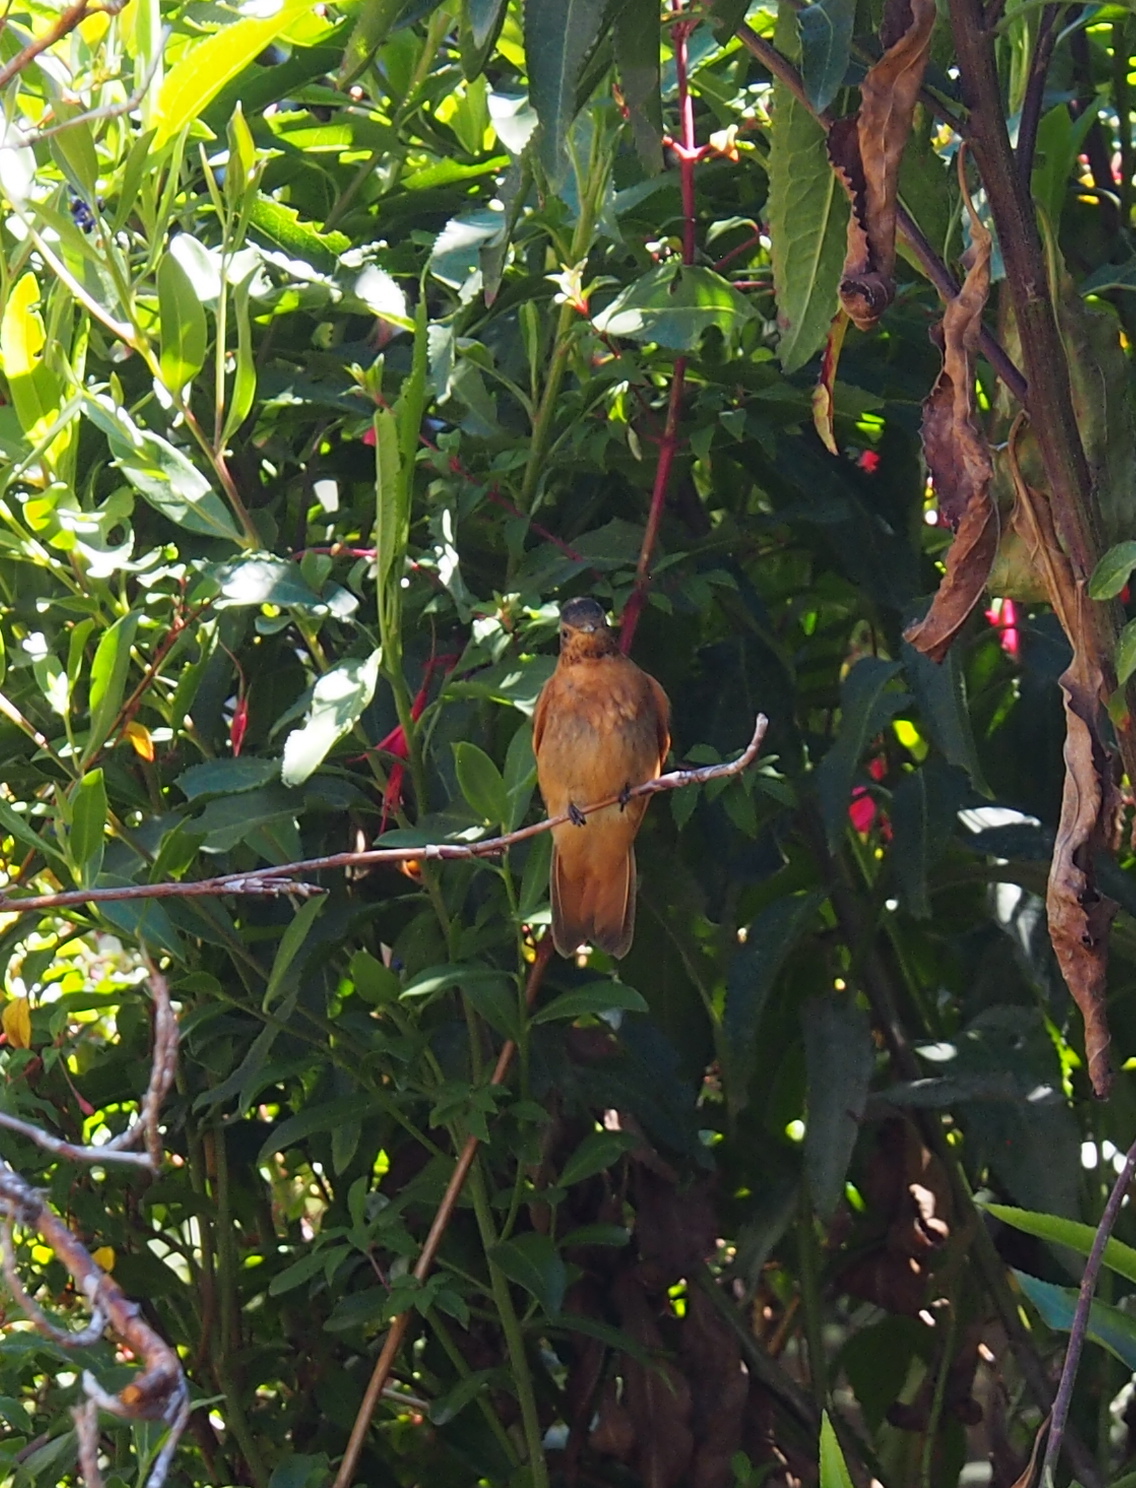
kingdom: Animalia
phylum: Chordata
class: Aves
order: Apodiformes
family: Trochilidae
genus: Aglaeactis
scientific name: Aglaeactis cupripennis
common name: Shining sunbeam
